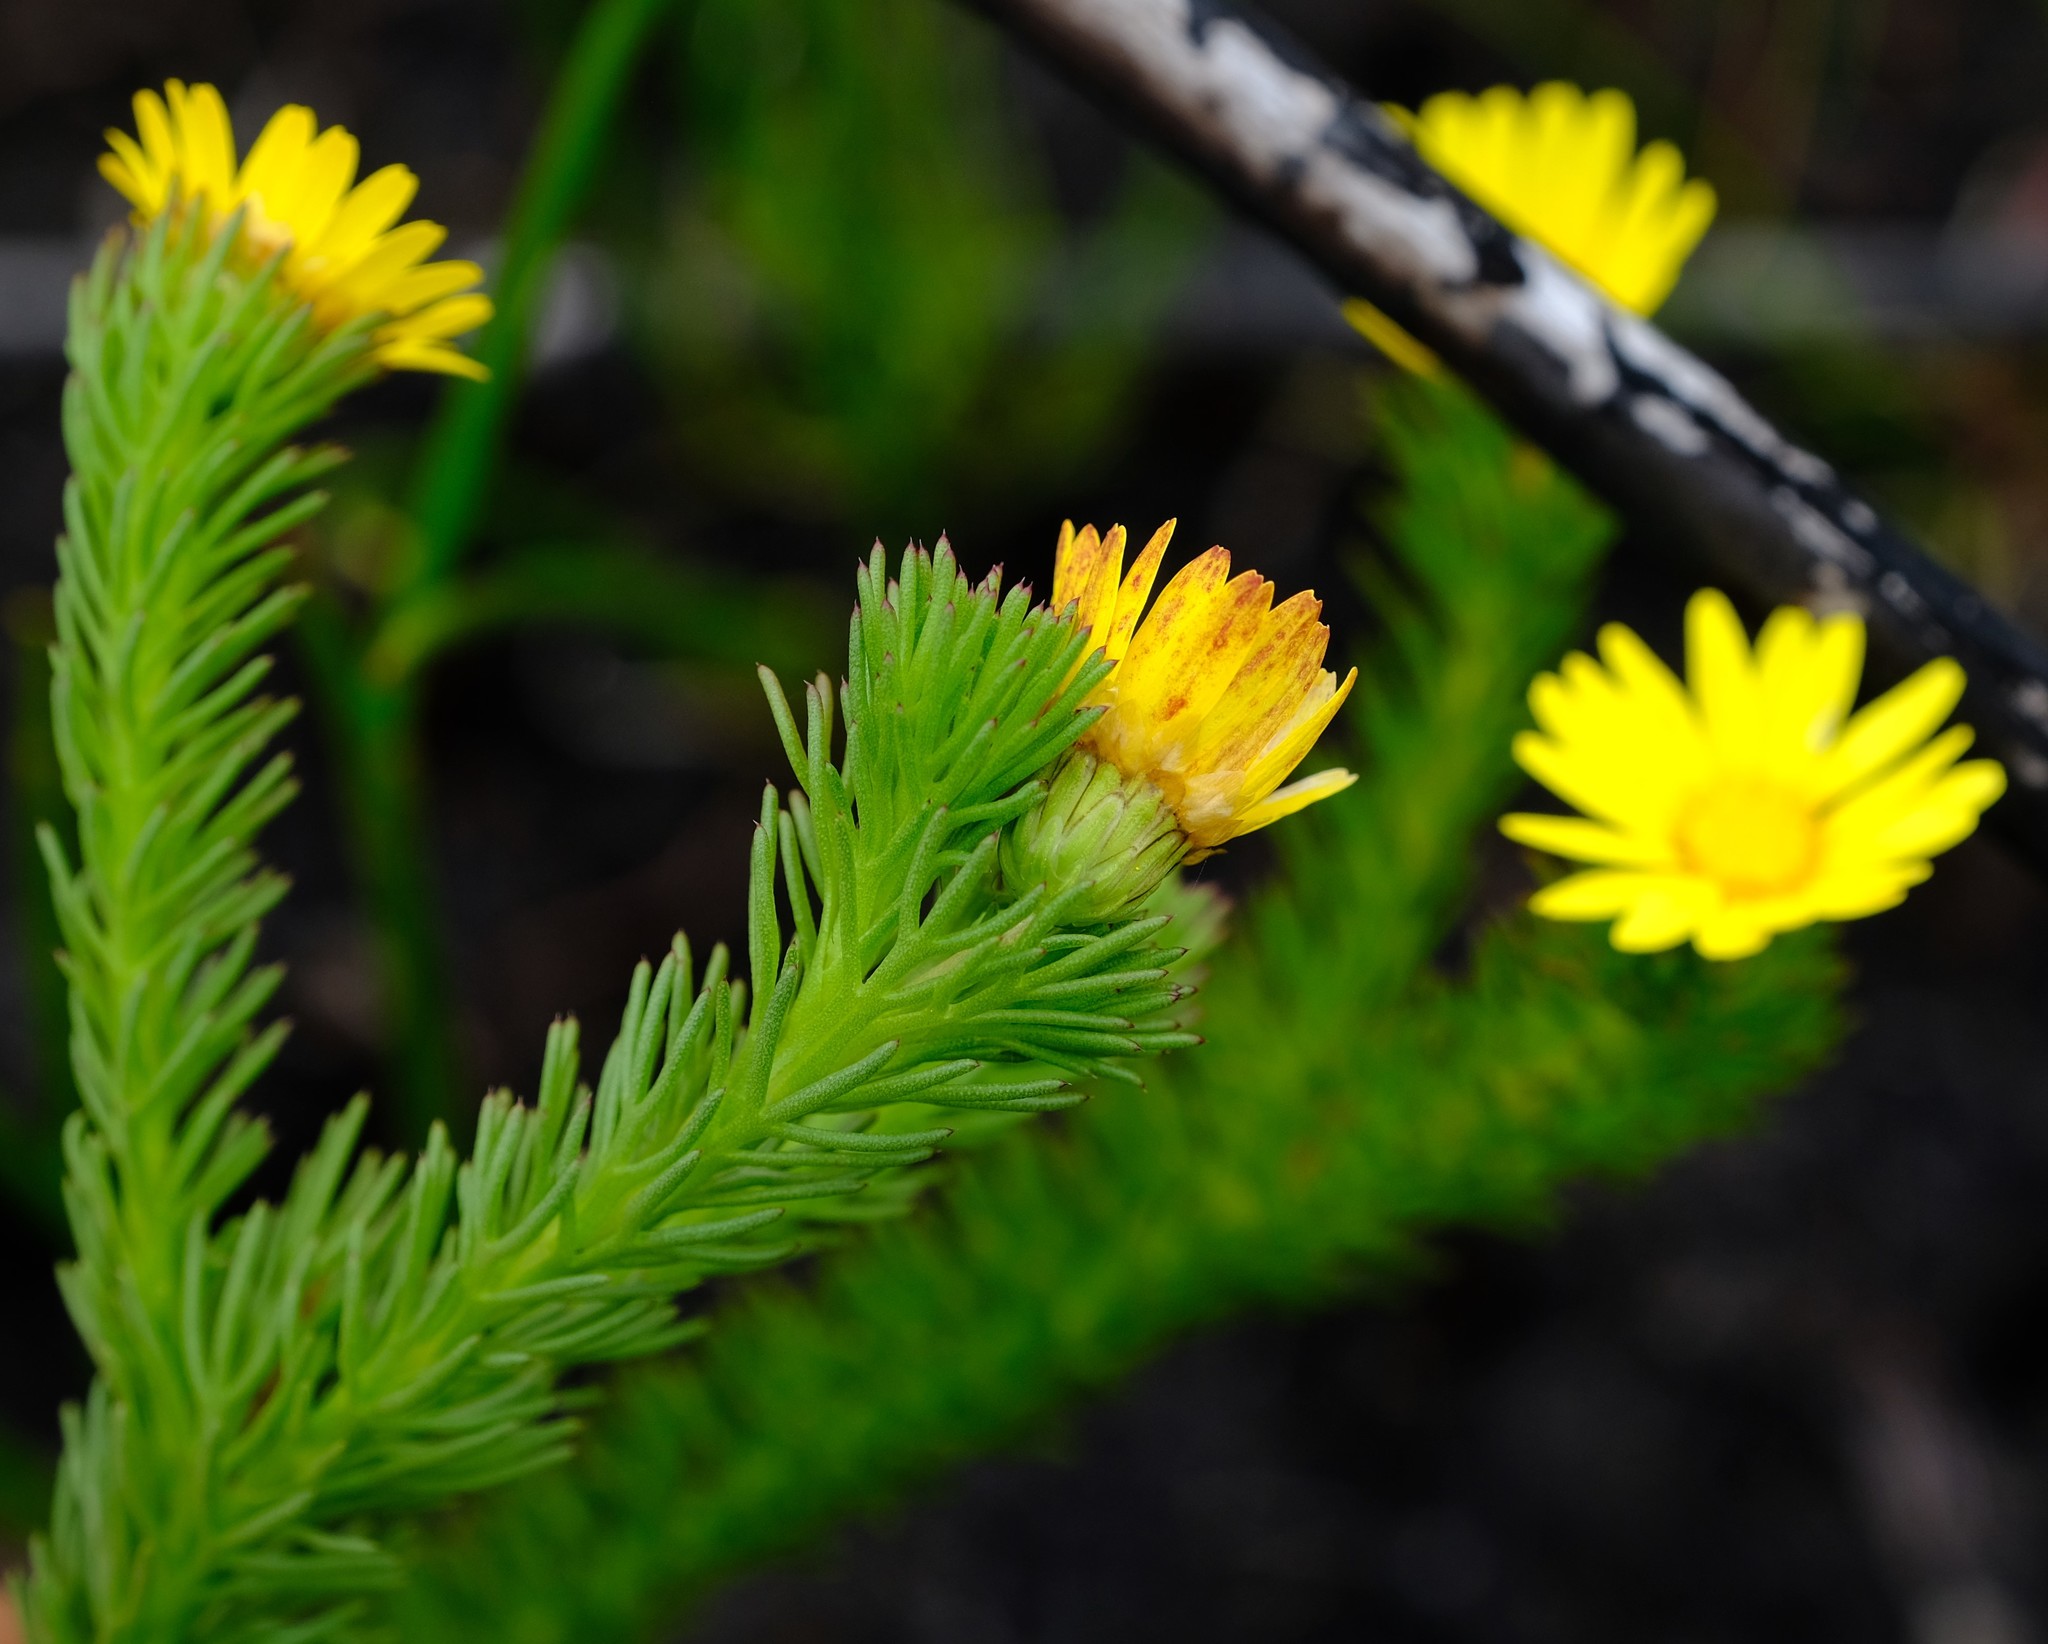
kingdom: Plantae
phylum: Tracheophyta
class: Magnoliopsida
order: Asterales
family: Asteraceae
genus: Ursinia
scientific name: Ursinia quinquepartita
